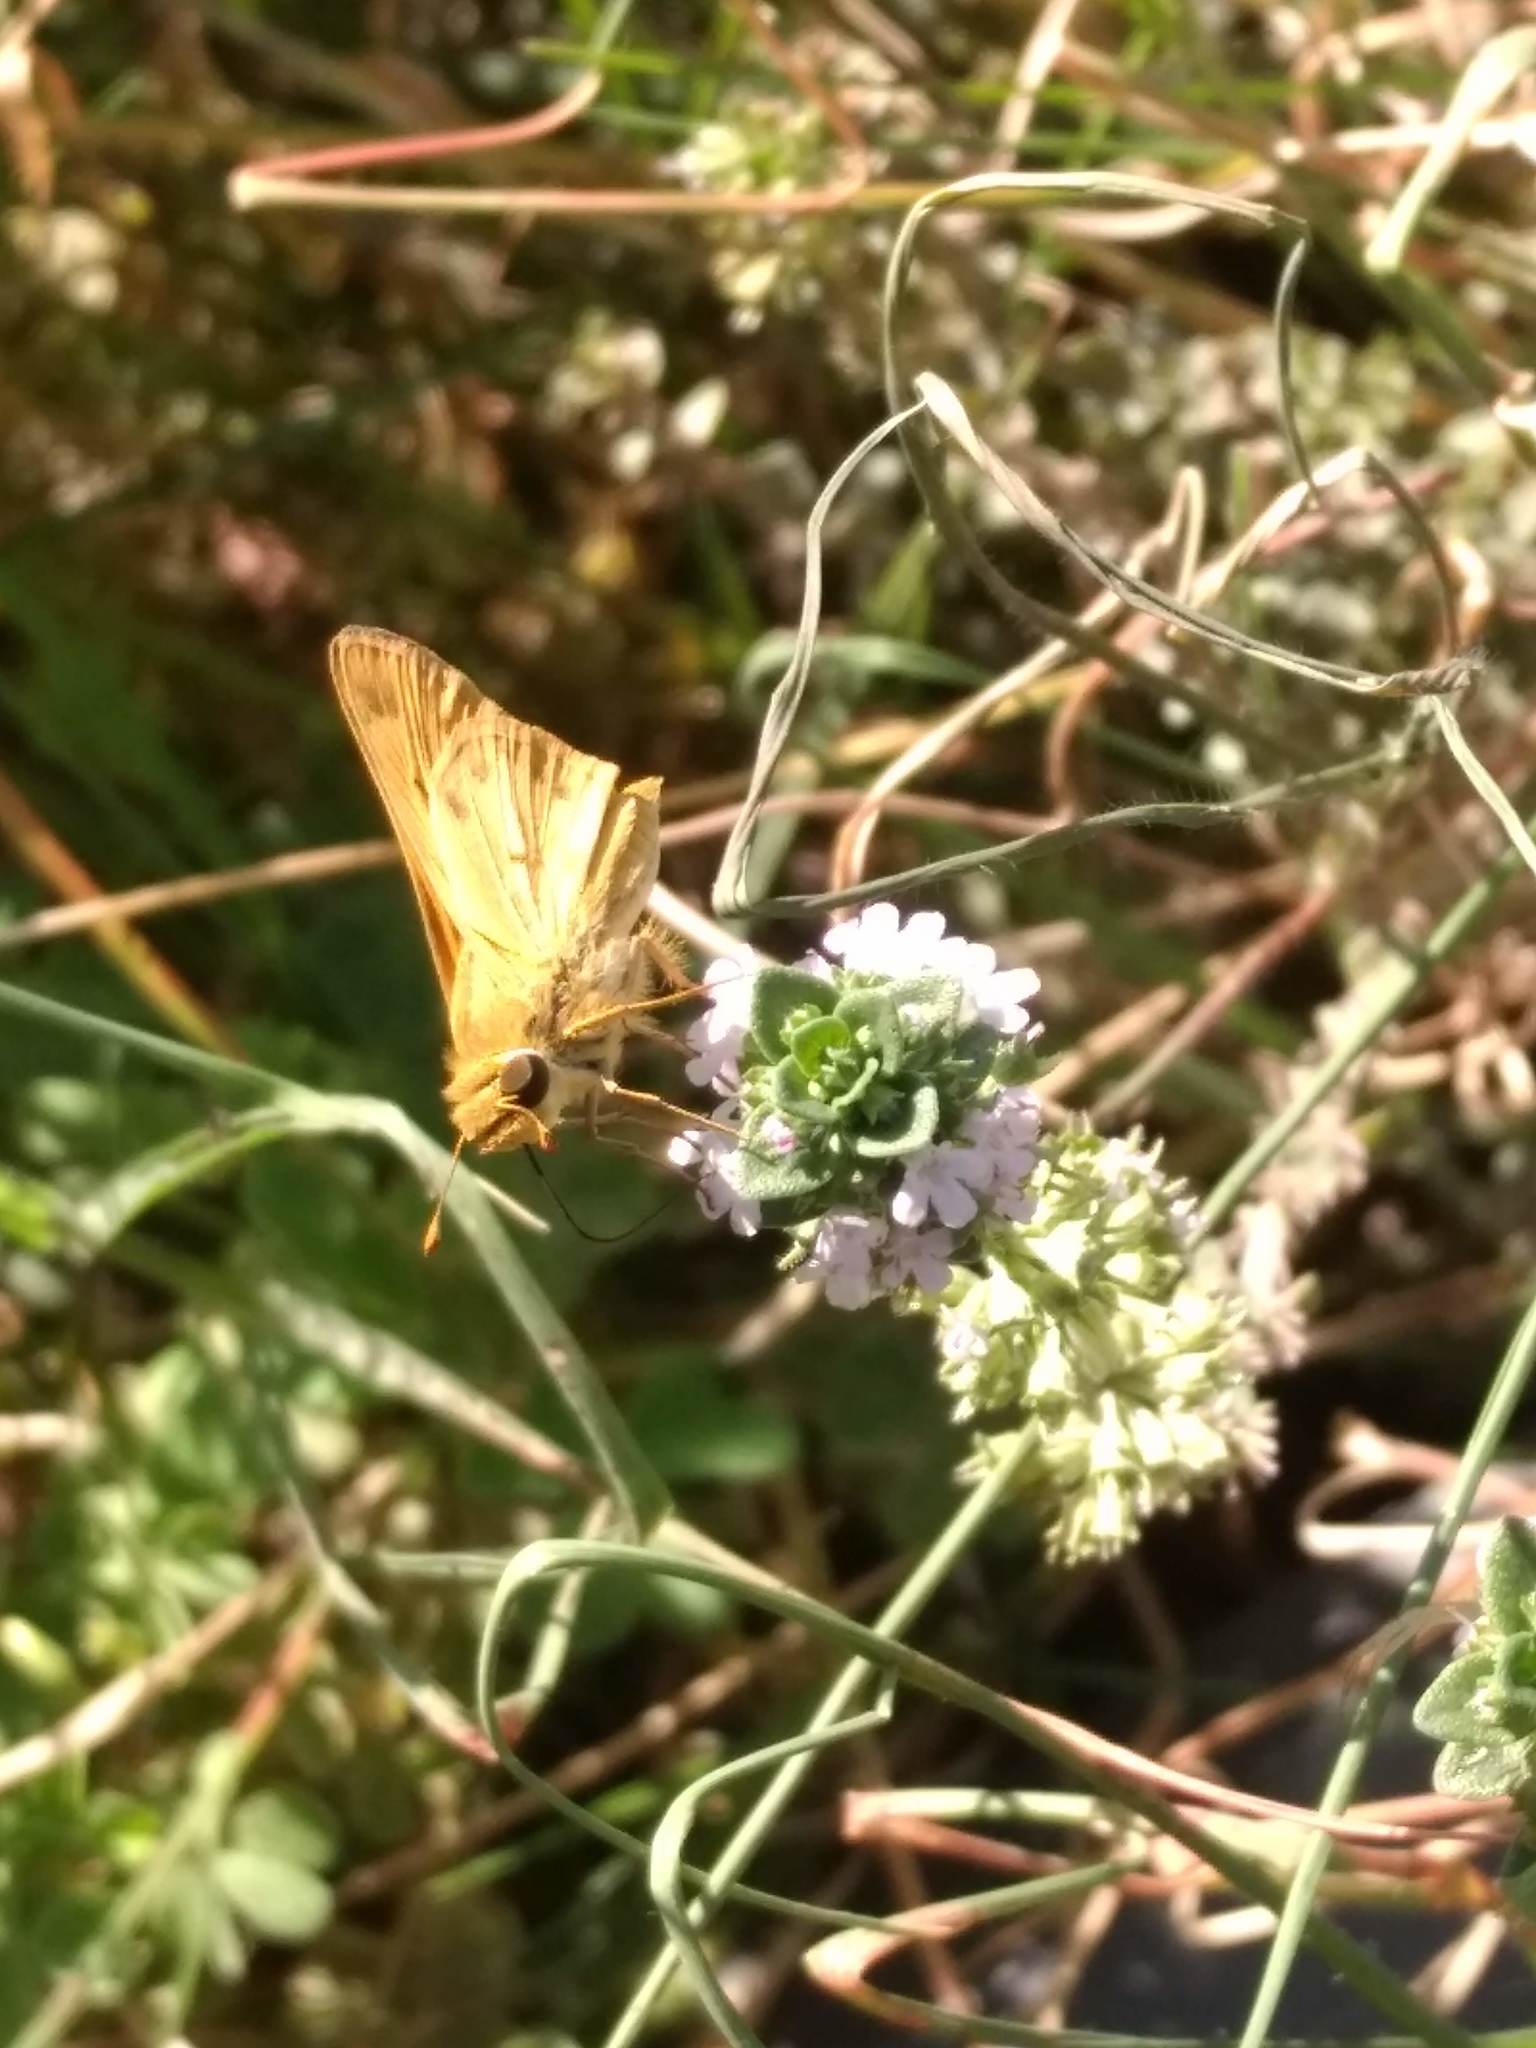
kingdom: Animalia
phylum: Arthropoda
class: Insecta
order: Lepidoptera
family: Hesperiidae
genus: Hylephila
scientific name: Hylephila phyleus
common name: Fiery skipper
